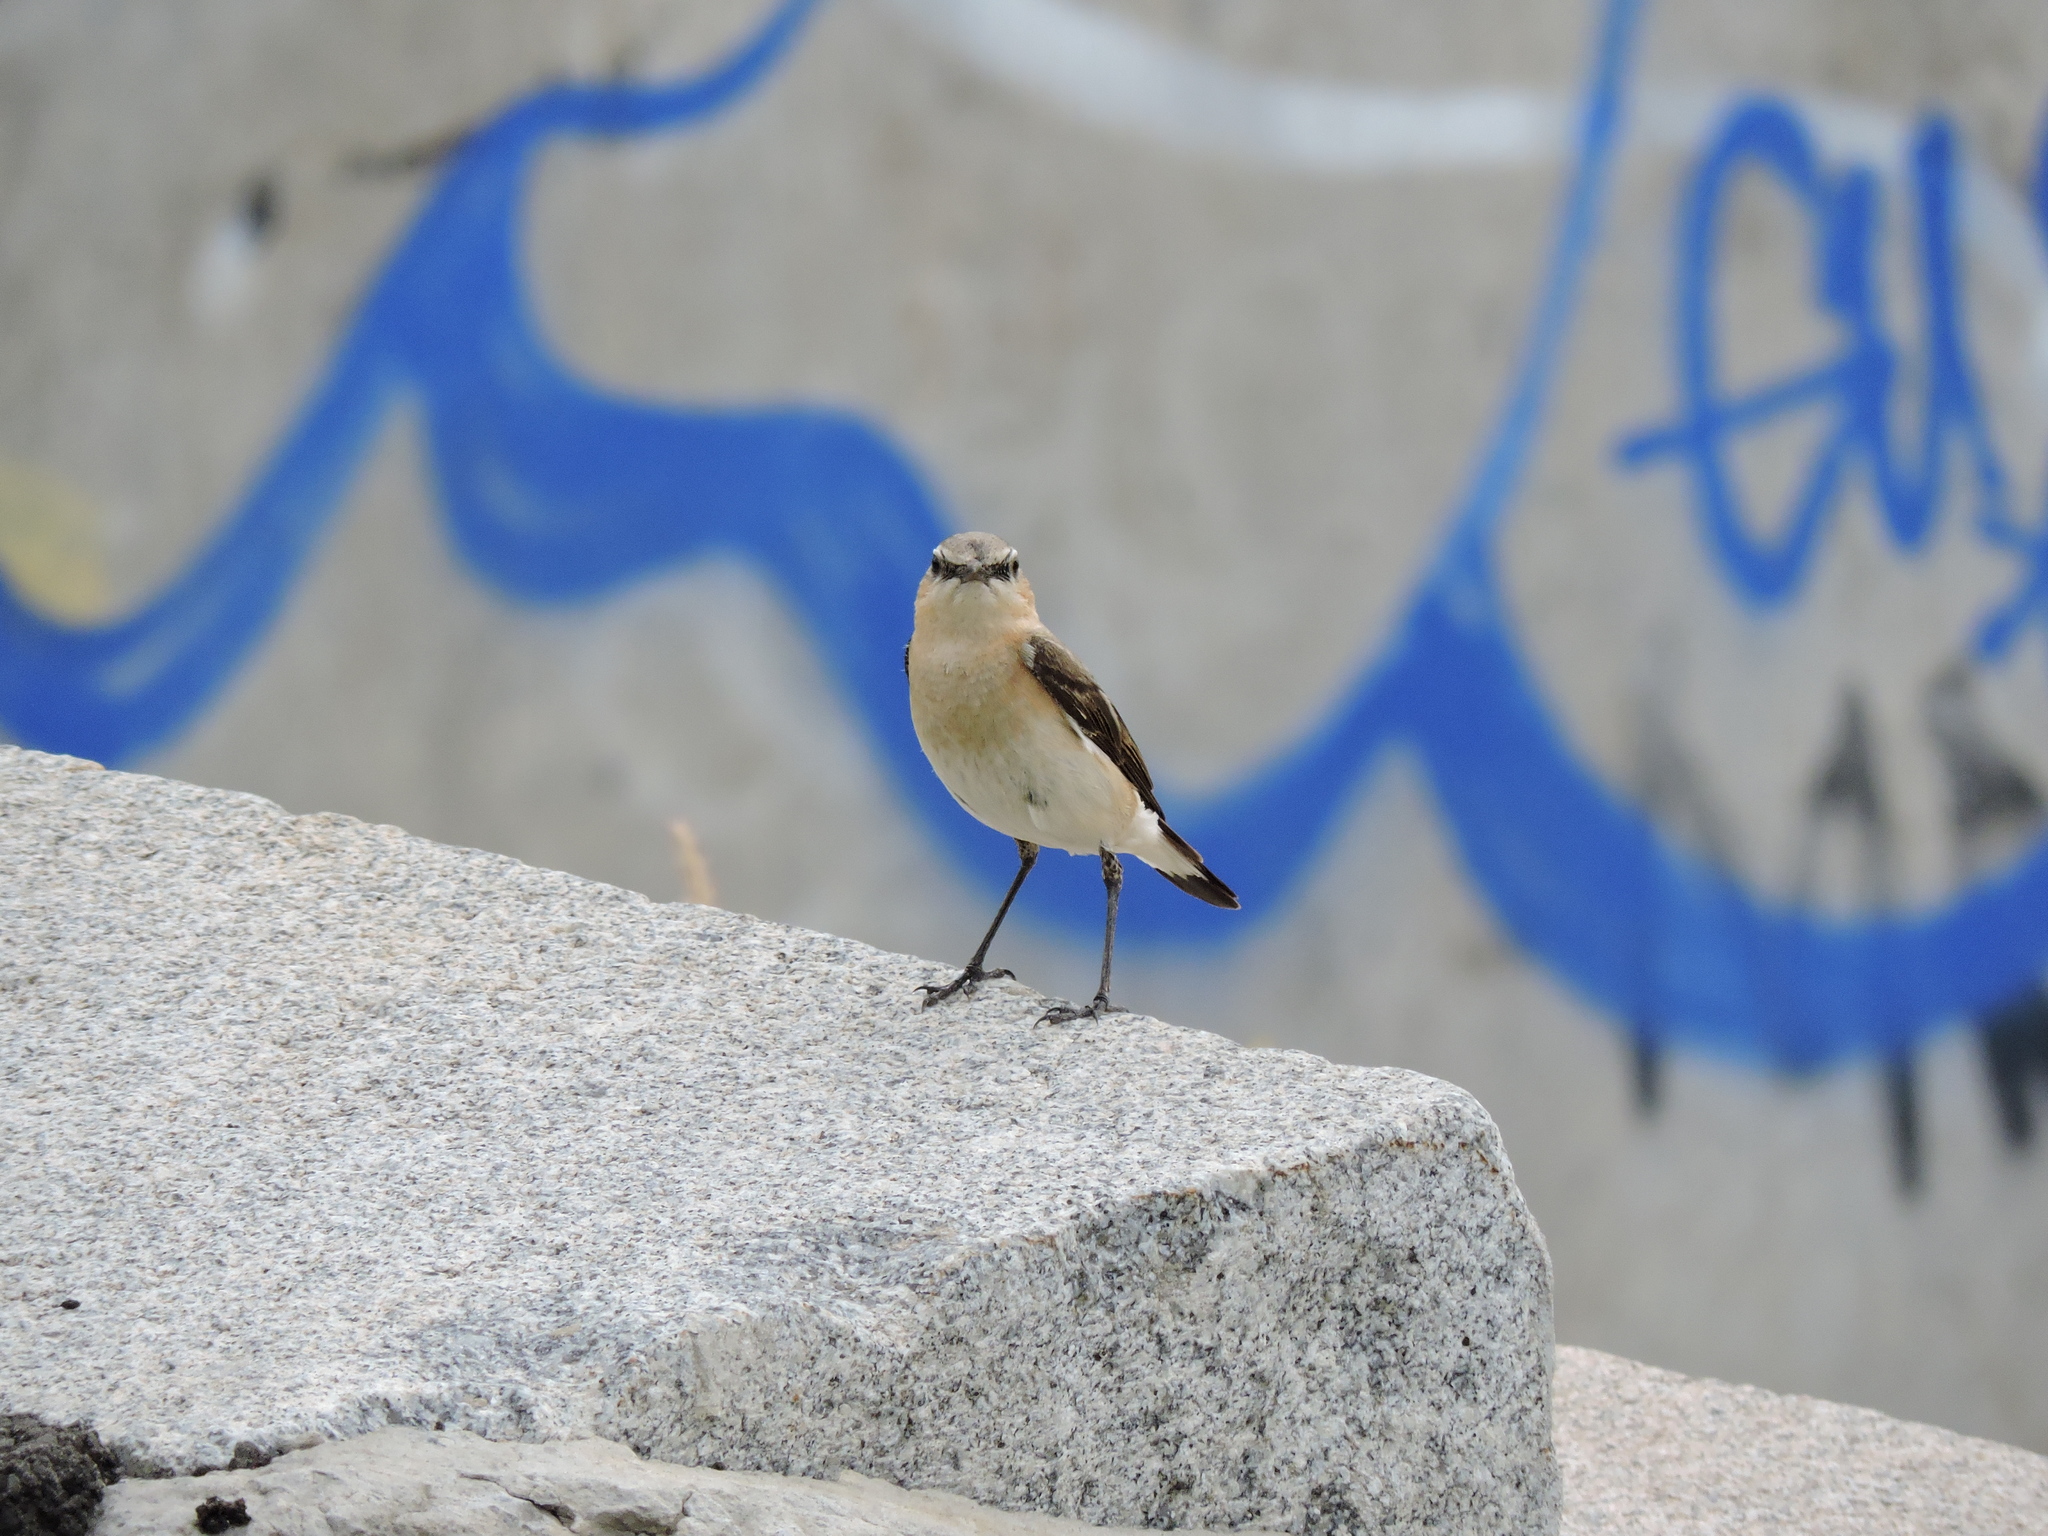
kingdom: Animalia
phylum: Chordata
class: Aves
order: Passeriformes
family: Muscicapidae
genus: Oenanthe
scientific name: Oenanthe oenanthe
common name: Northern wheatear
